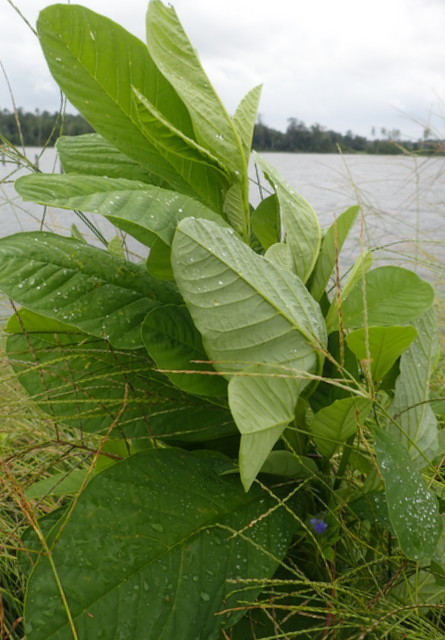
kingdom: Plantae
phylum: Tracheophyta
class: Magnoliopsida
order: Fabales
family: Fabaceae
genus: Crotalaria
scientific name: Crotalaria spectabilis
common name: Showy rattlebox
